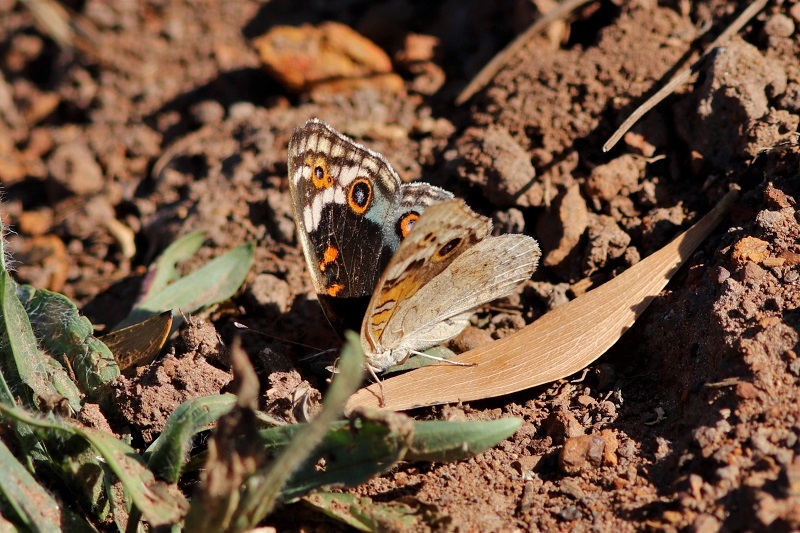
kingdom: Animalia
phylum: Arthropoda
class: Insecta
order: Lepidoptera
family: Nymphalidae
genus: Junonia
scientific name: Junonia orithya
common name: Blue pansy
